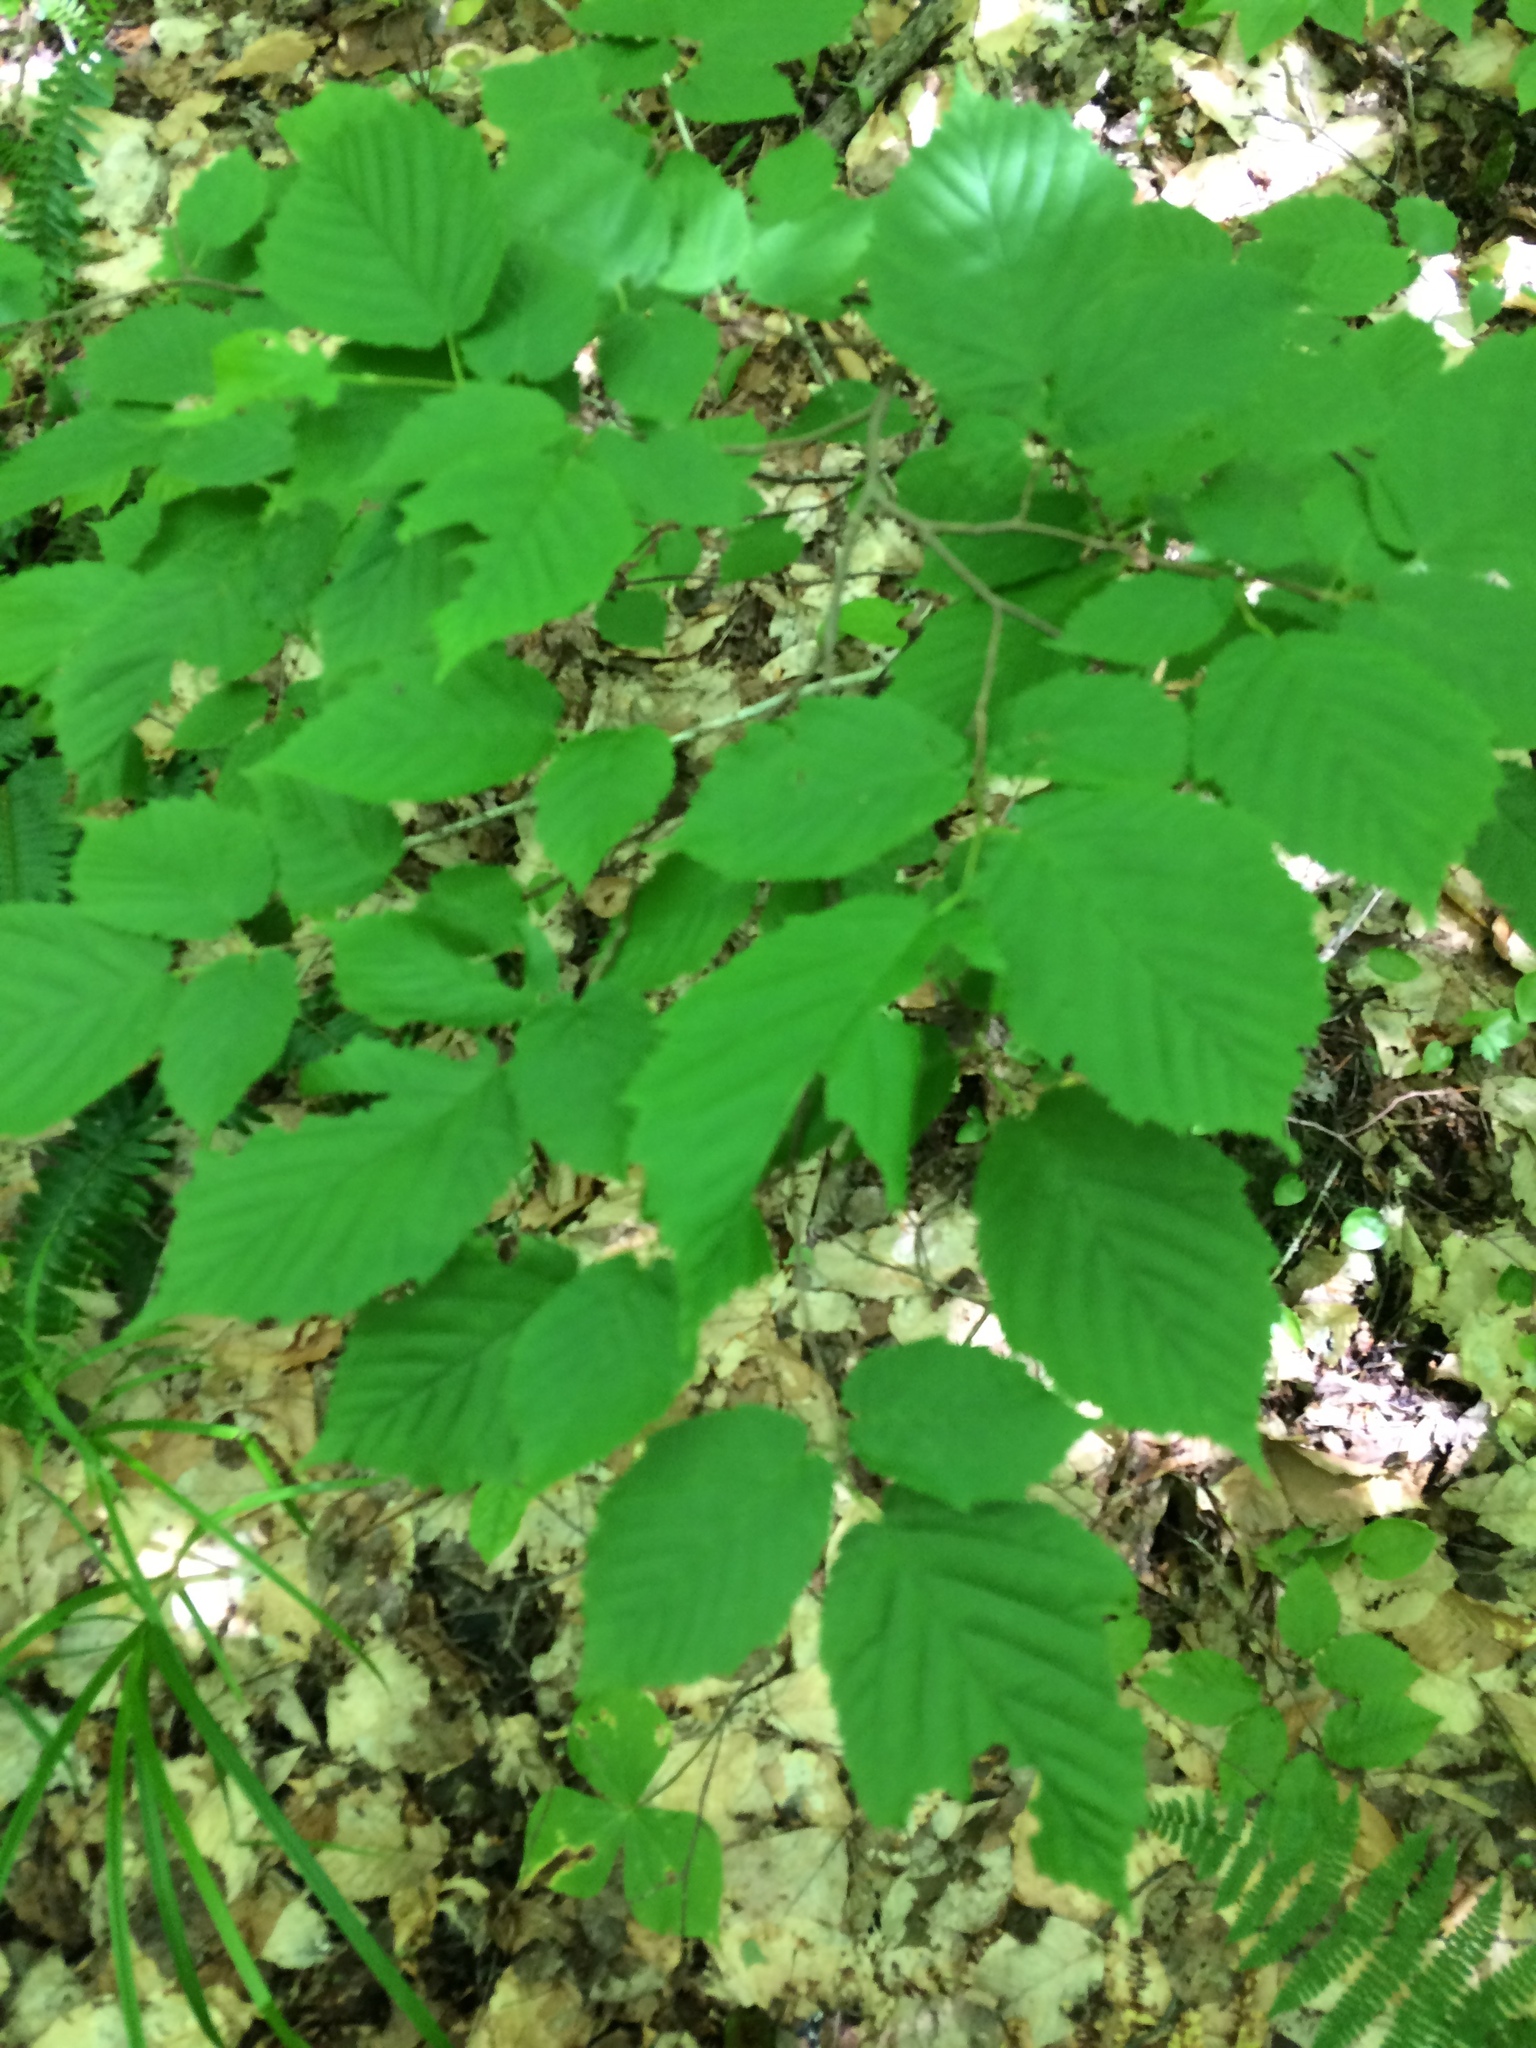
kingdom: Plantae
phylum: Tracheophyta
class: Magnoliopsida
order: Fagales
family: Betulaceae
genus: Corylus
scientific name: Corylus cornuta
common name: Beaked hazel
